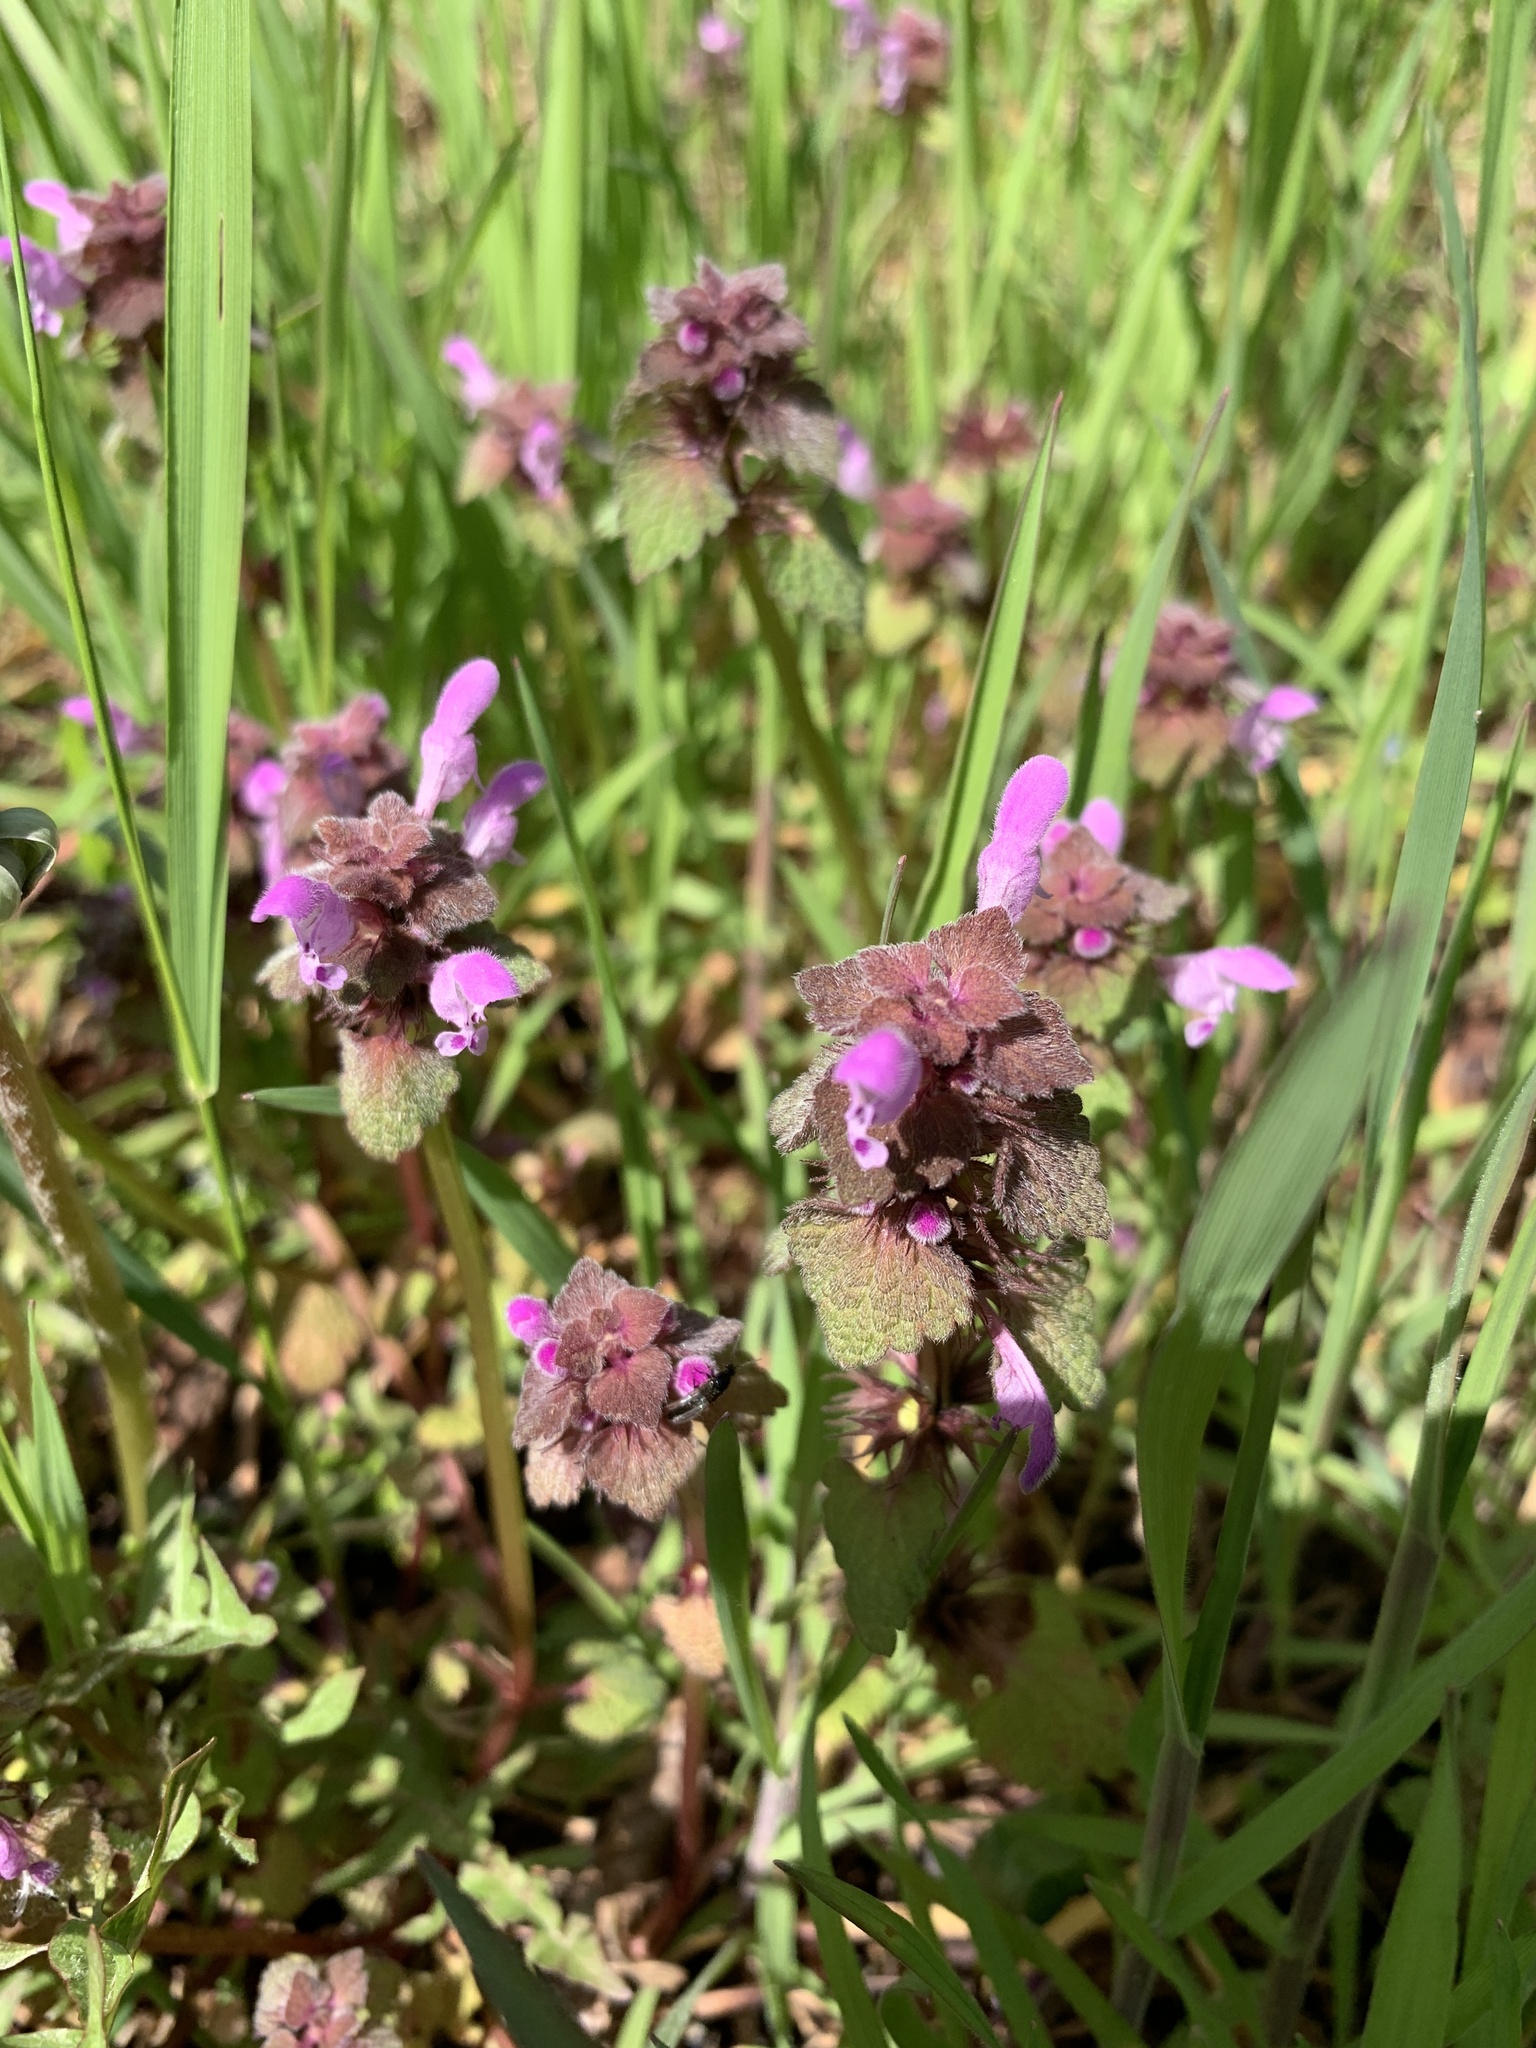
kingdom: Plantae
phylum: Tracheophyta
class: Magnoliopsida
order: Lamiales
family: Lamiaceae
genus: Lamium
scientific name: Lamium purpureum
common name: Red dead-nettle
